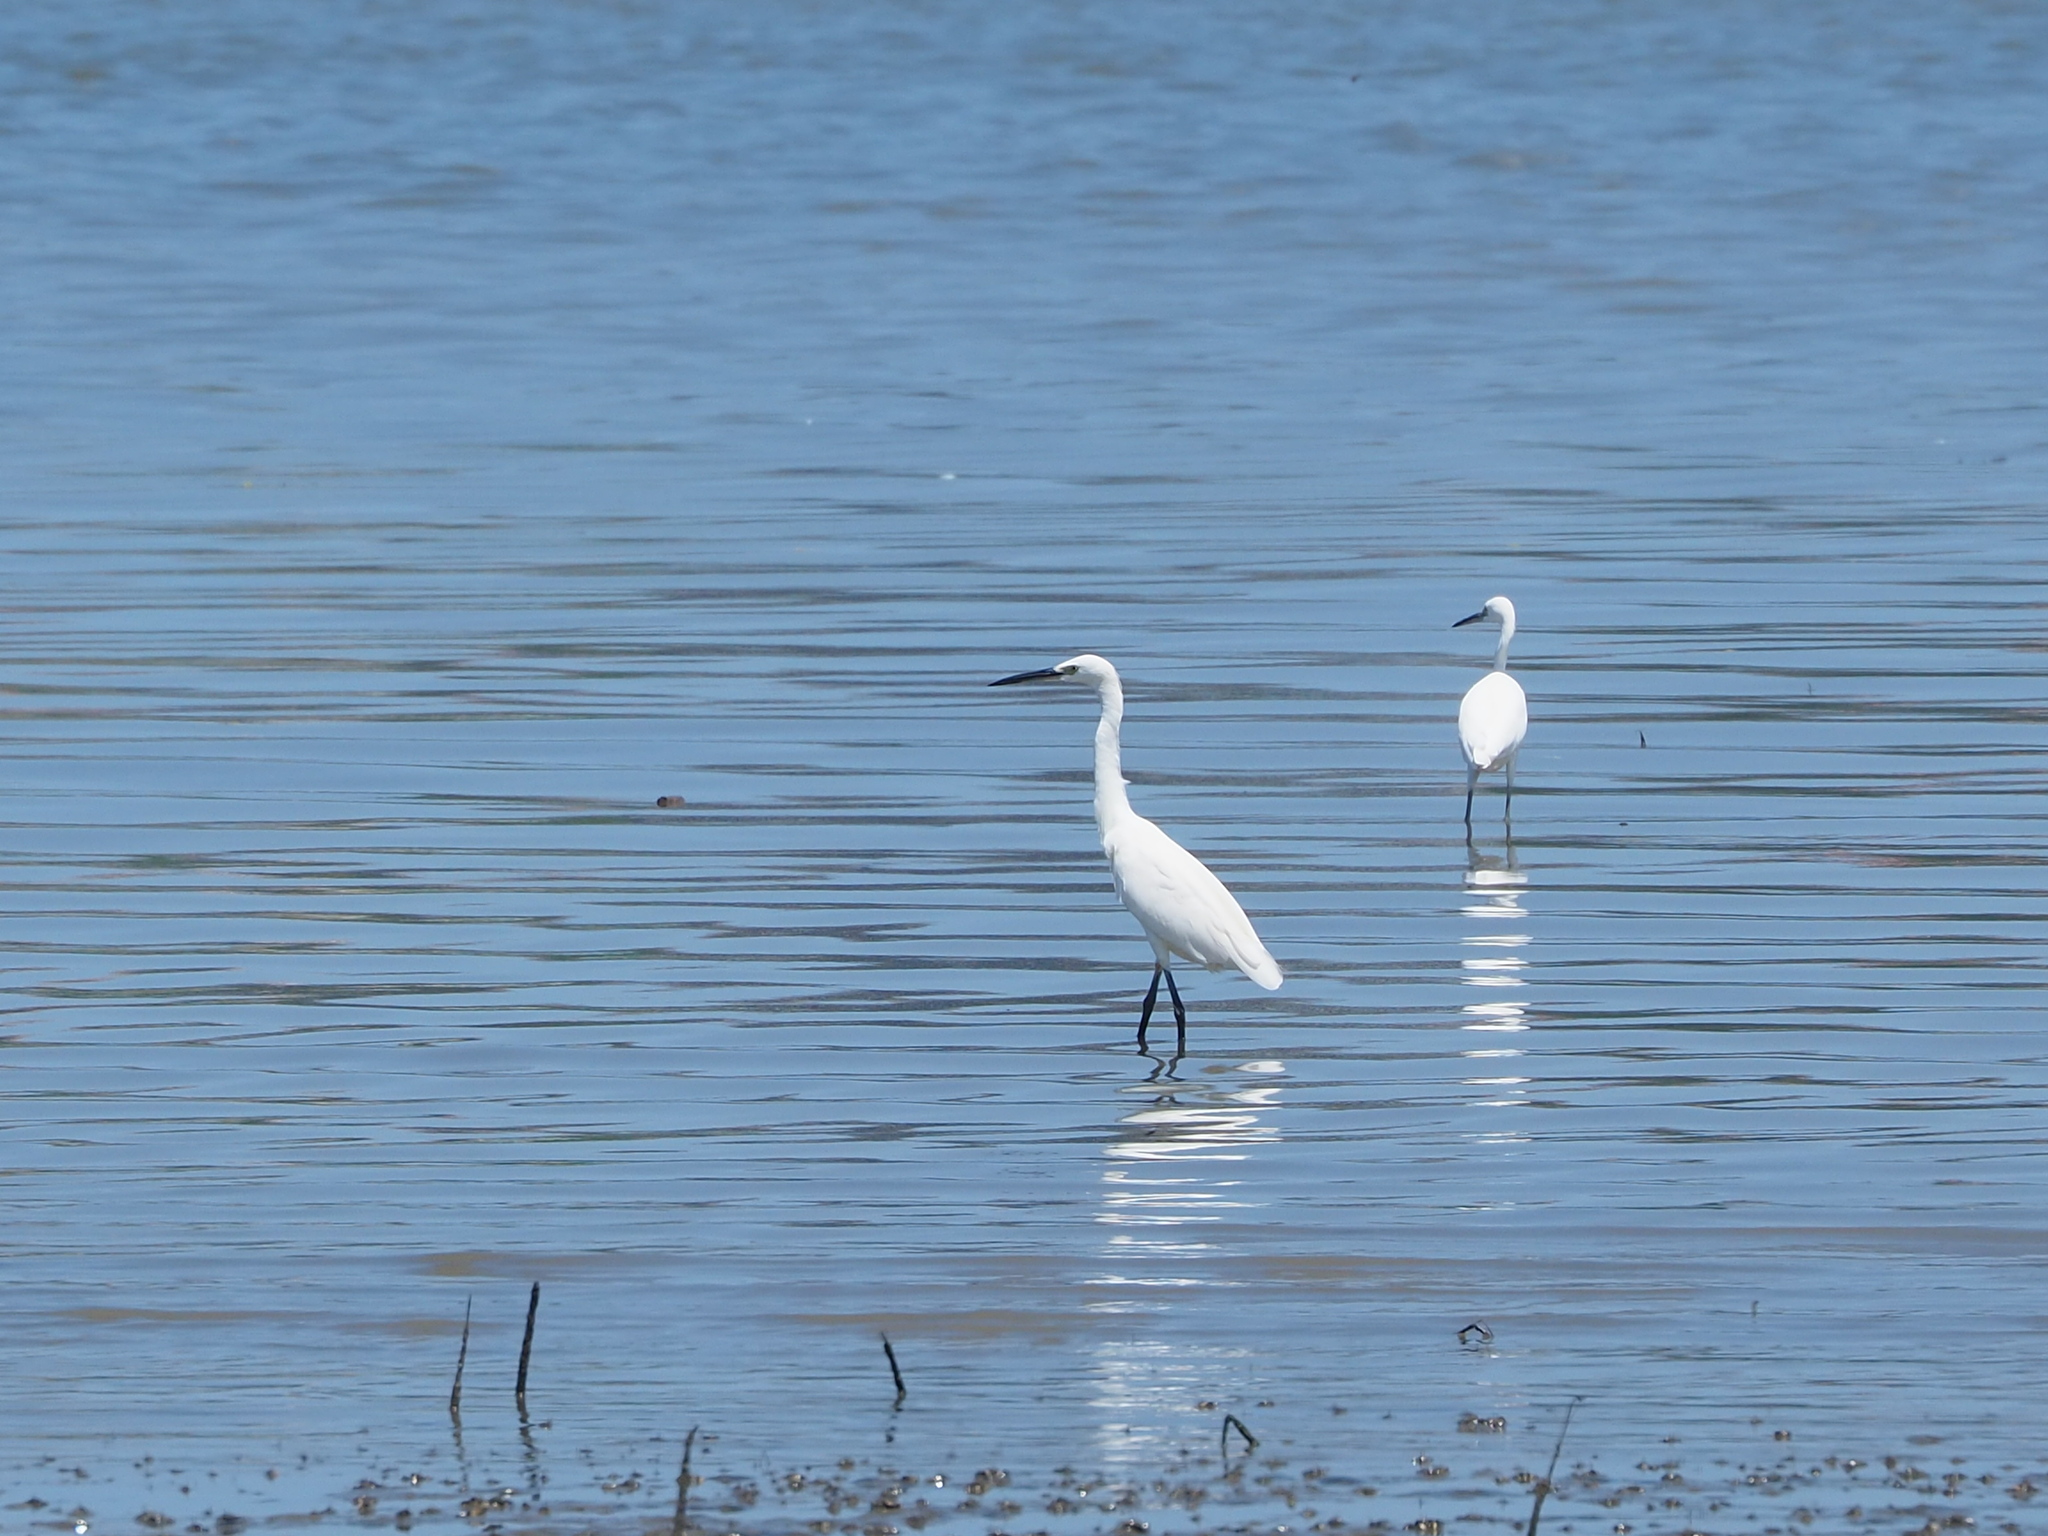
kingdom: Animalia
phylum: Chordata
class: Aves
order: Pelecaniformes
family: Ardeidae
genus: Egretta
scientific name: Egretta garzetta
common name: Little egret
